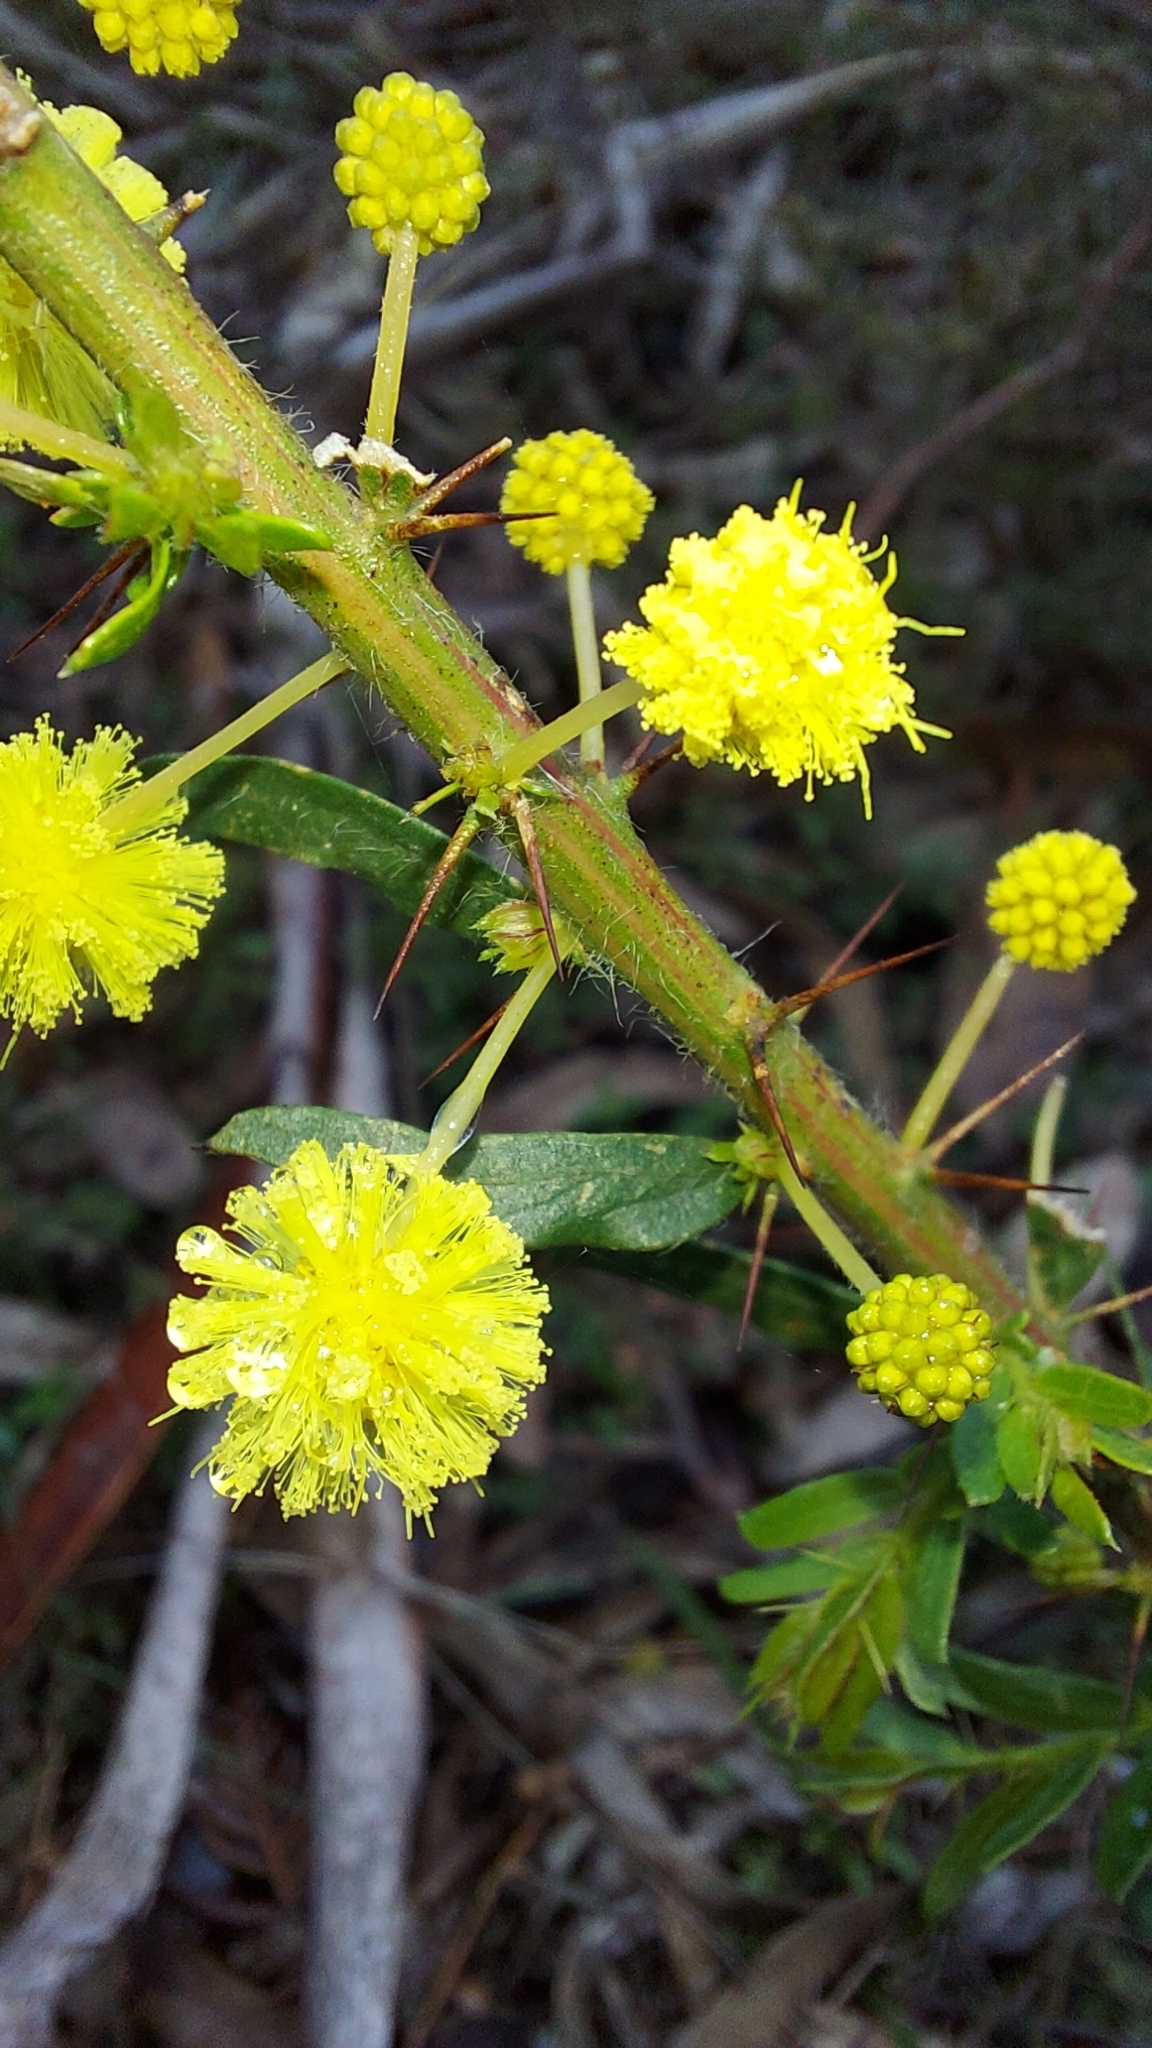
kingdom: Plantae
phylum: Tracheophyta
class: Magnoliopsida
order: Fabales
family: Fabaceae
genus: Acacia
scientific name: Acacia paradoxa
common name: Paradox acacia
